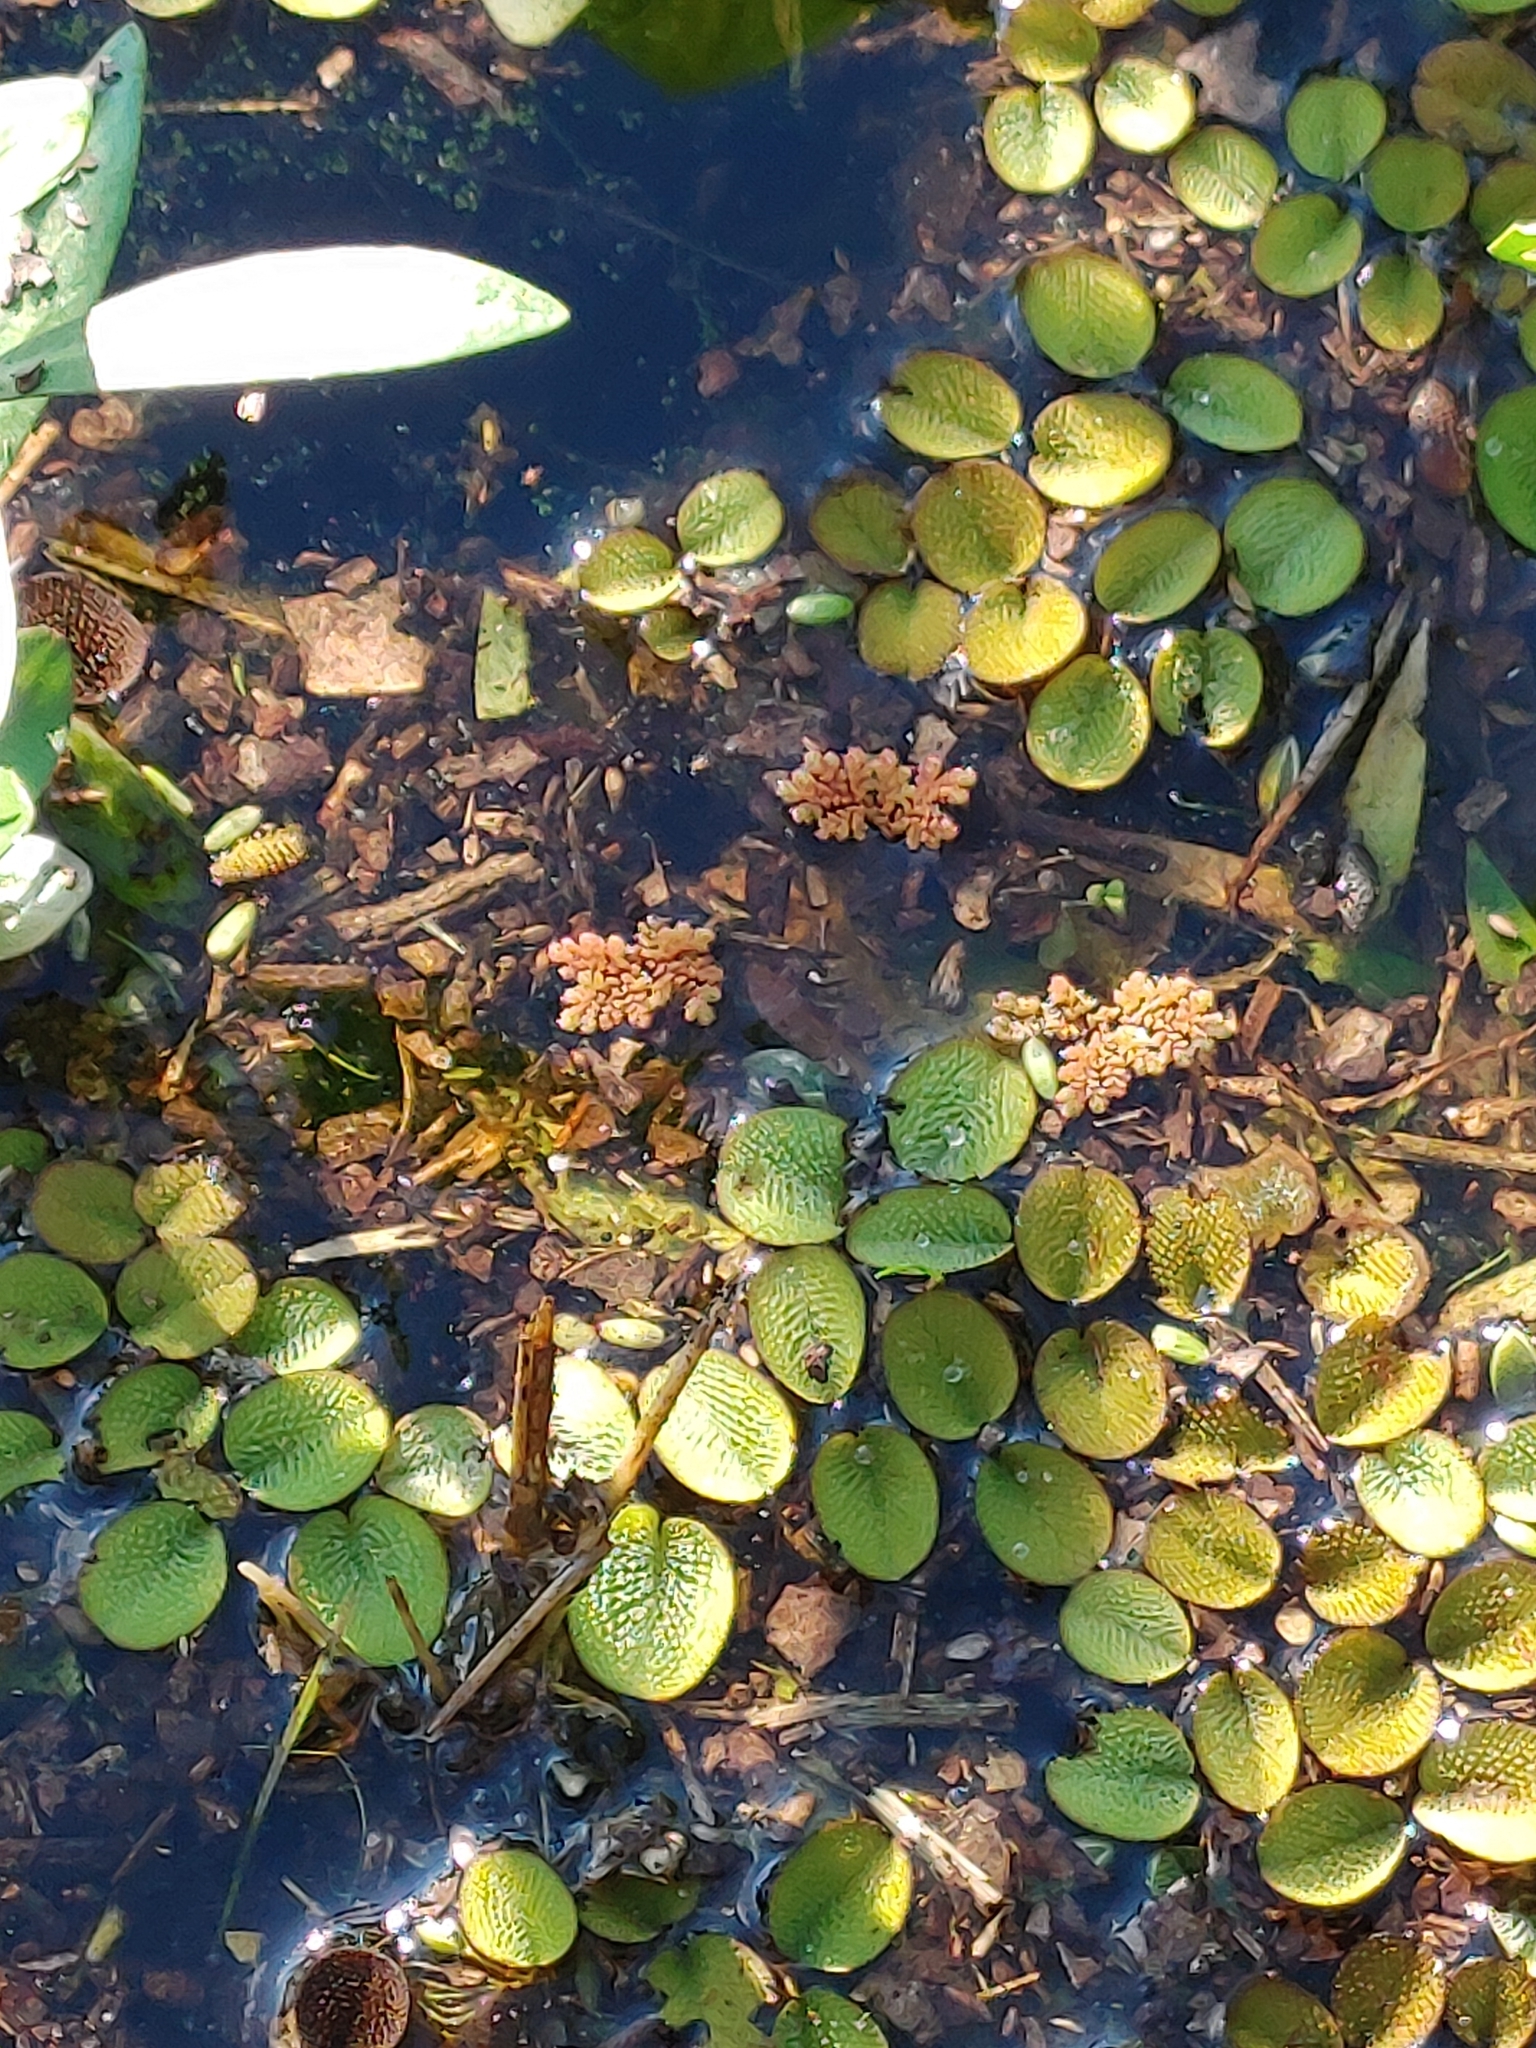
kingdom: Plantae
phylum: Tracheophyta
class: Polypodiopsida
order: Salviniales
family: Salviniaceae
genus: Salvinia
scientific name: Salvinia minima
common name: Water spangles
